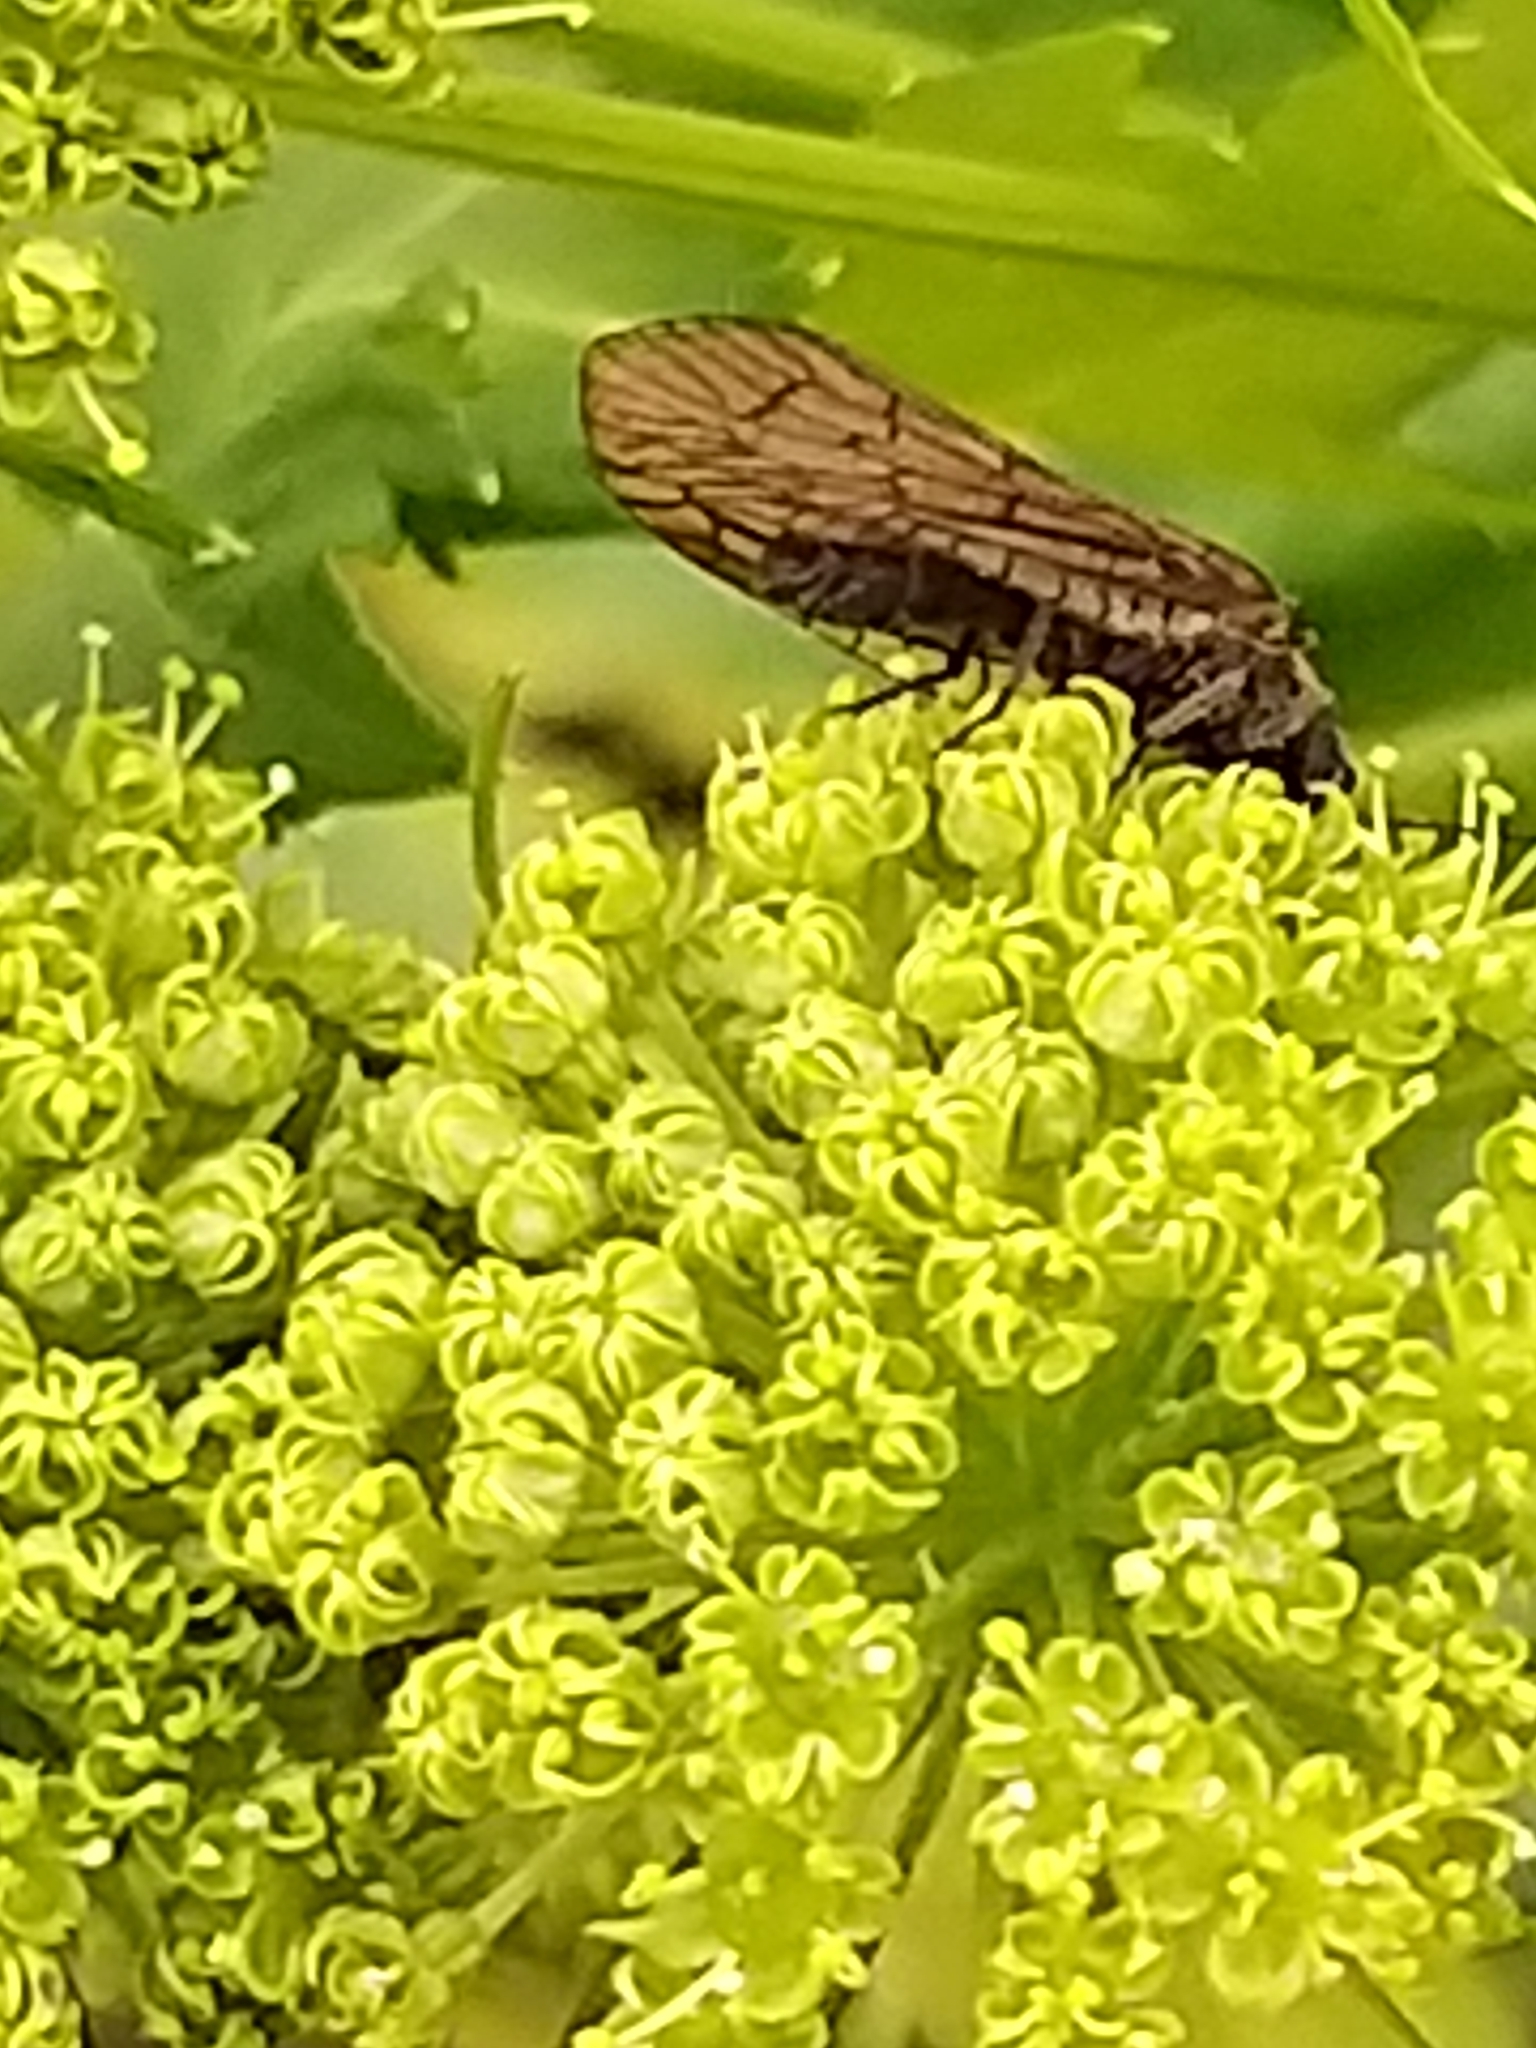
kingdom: Animalia
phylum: Arthropoda
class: Insecta
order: Megaloptera
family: Sialidae
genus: Sialis
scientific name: Sialis
